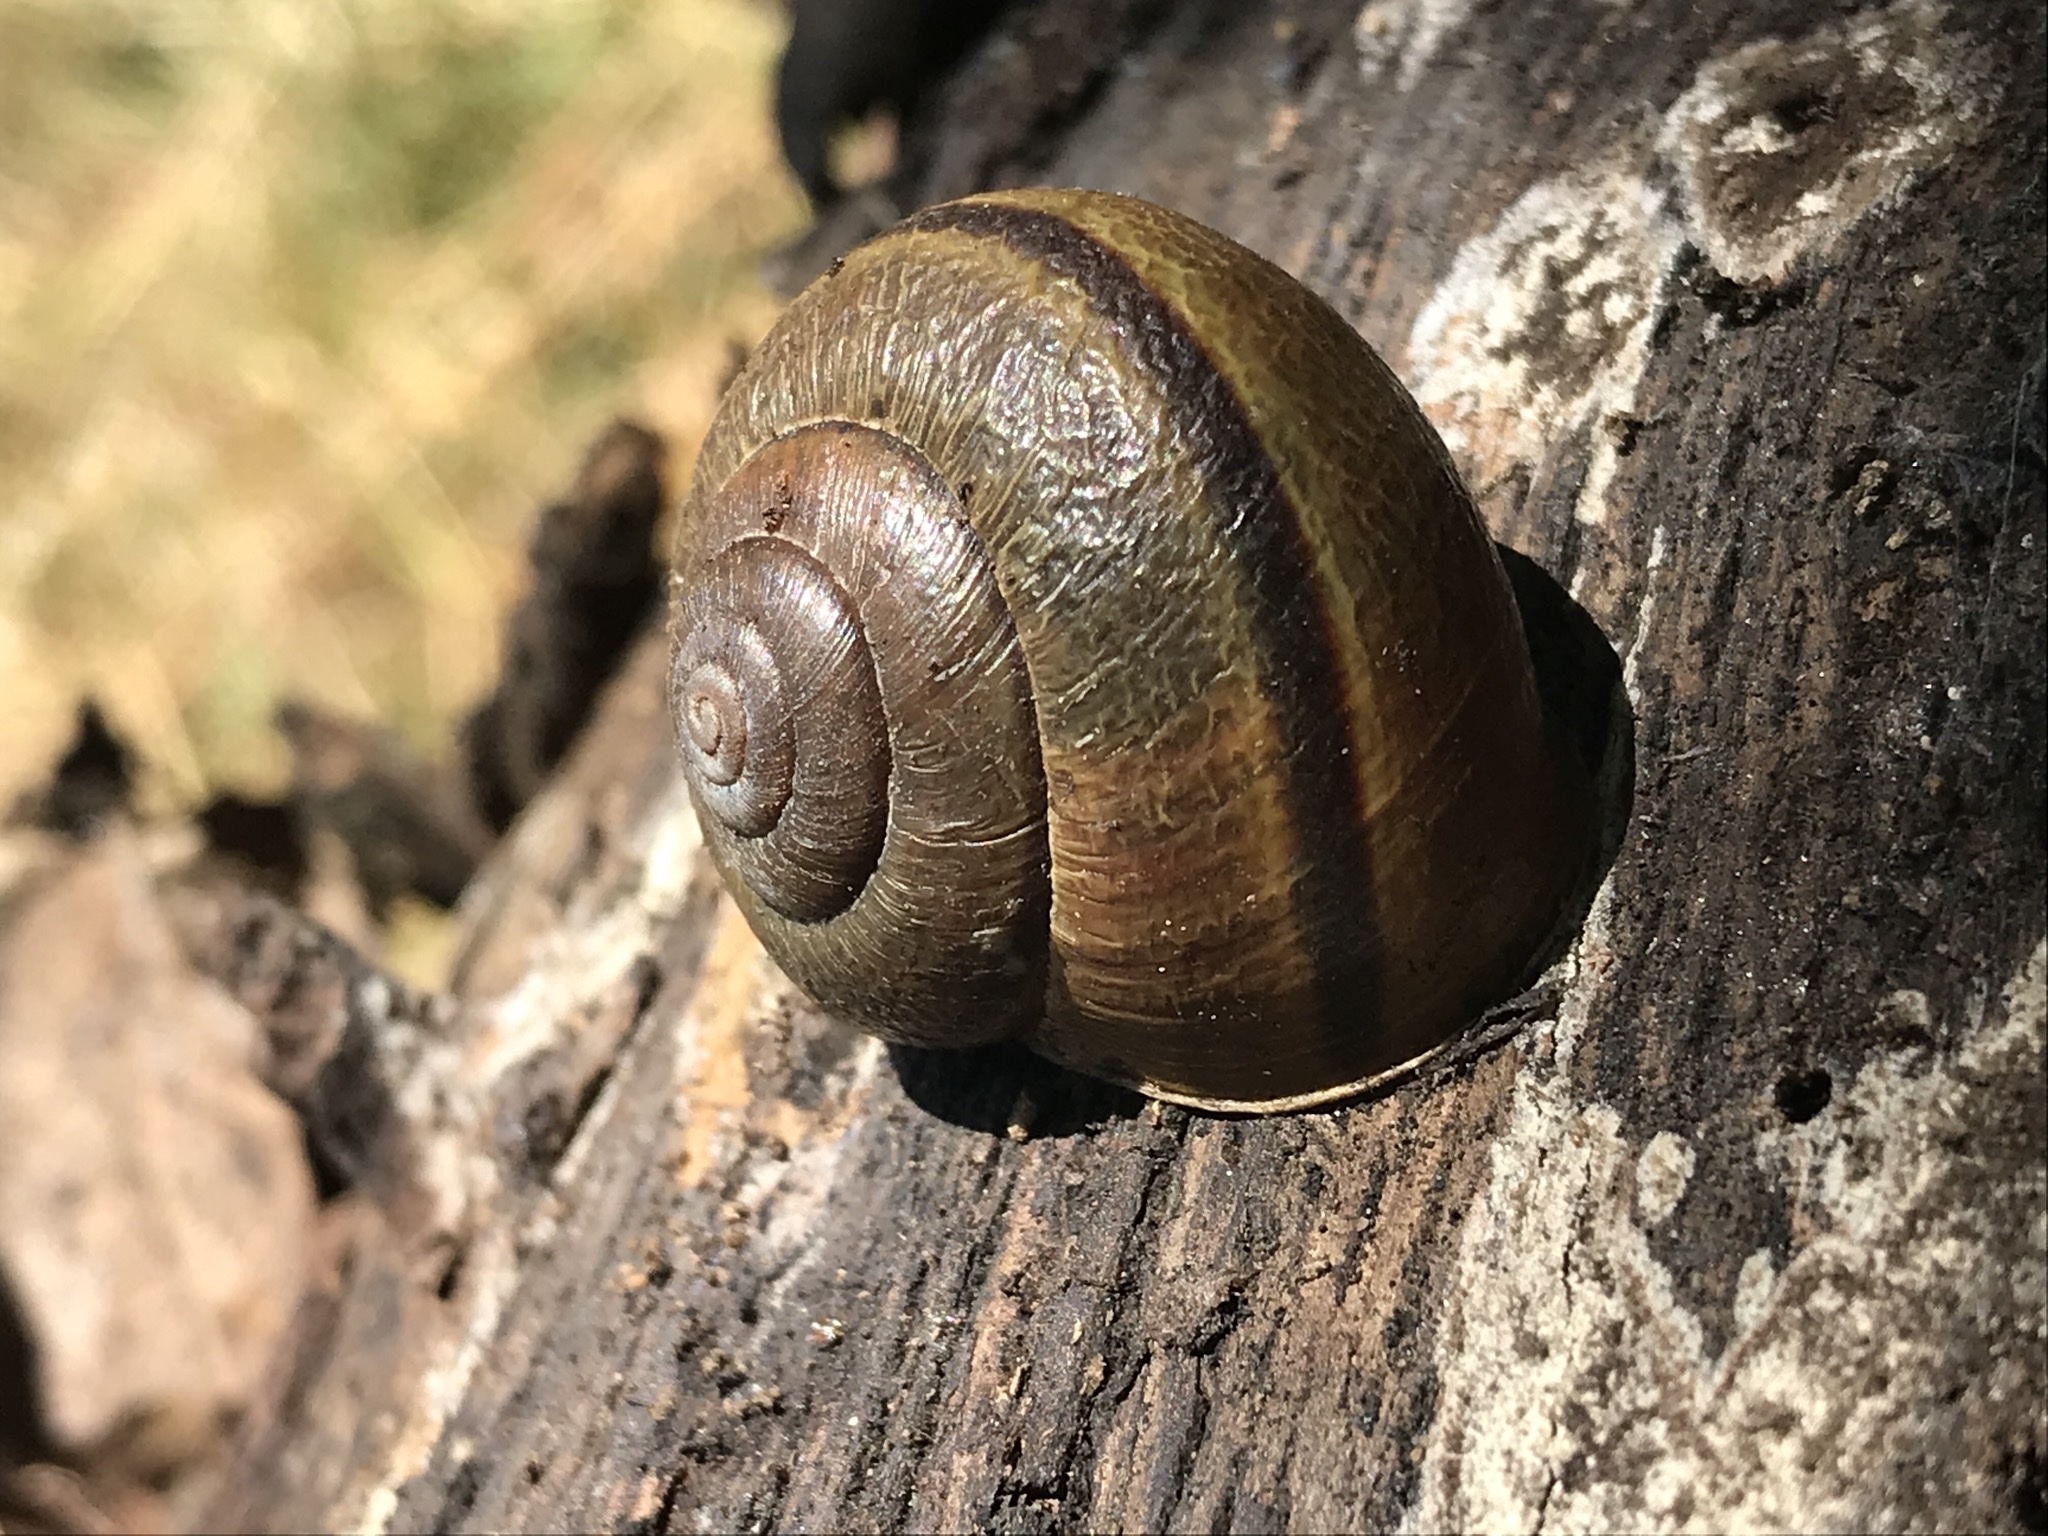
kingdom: Animalia
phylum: Mollusca
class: Gastropoda
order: Stylommatophora
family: Xanthonychidae
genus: Helminthoglypta
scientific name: Helminthoglypta tudiculata
